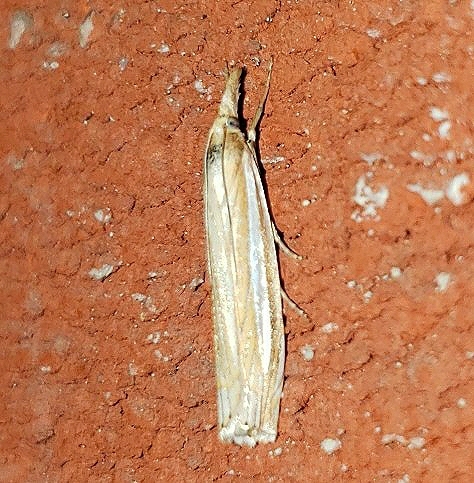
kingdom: Animalia
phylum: Arthropoda
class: Insecta
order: Lepidoptera
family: Crambidae
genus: Crambus
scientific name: Crambus laqueatellus
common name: Eastern grass-veneer
